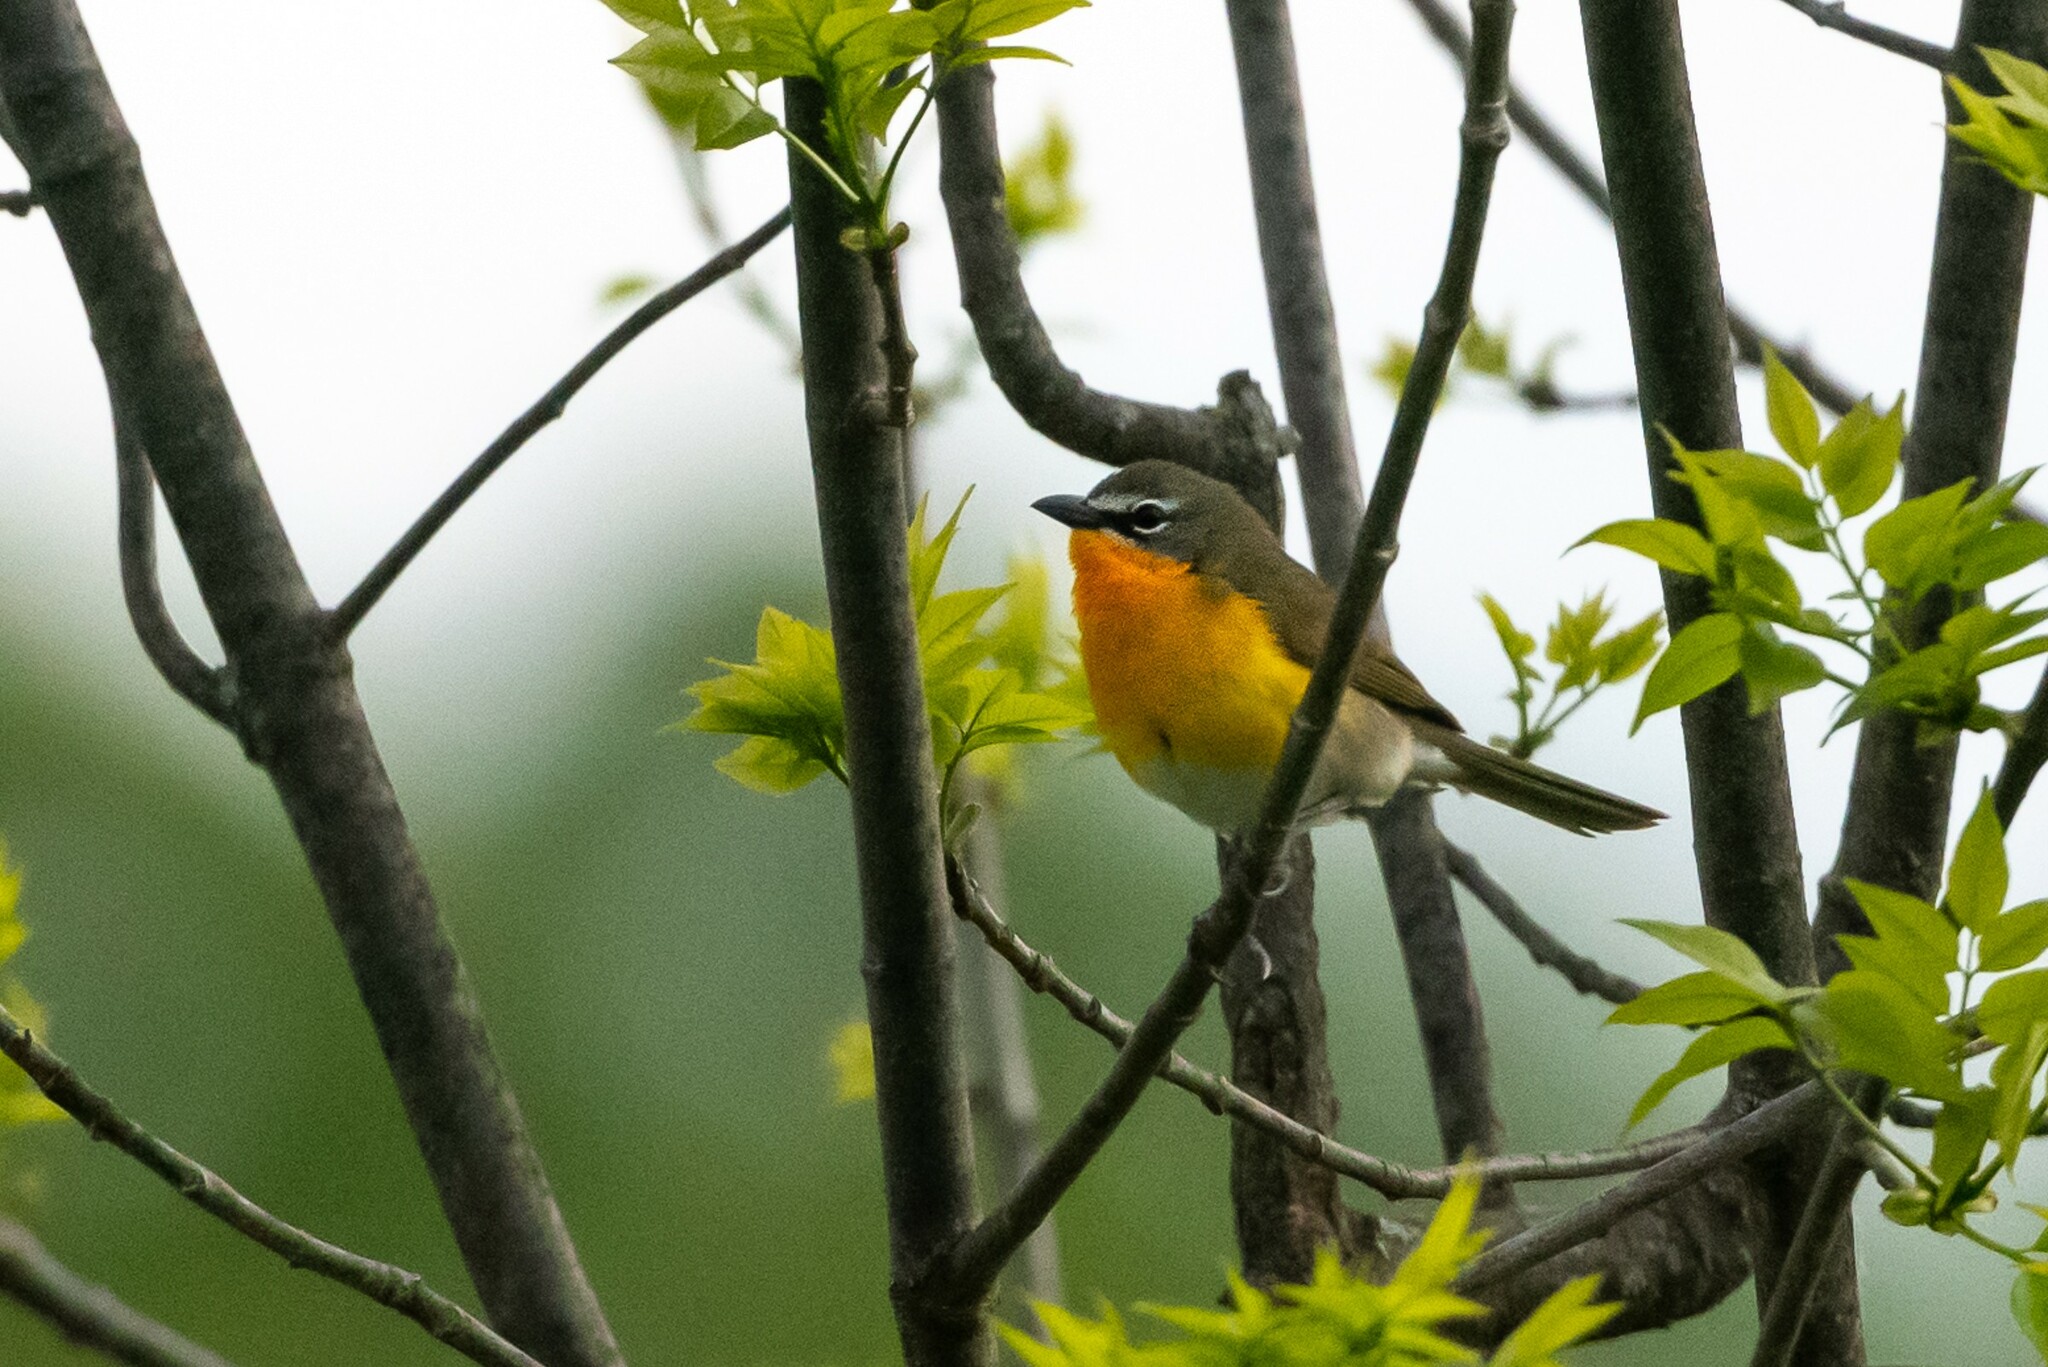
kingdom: Animalia
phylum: Chordata
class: Aves
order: Passeriformes
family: Parulidae
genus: Icteria
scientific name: Icteria virens
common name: Yellow-breasted chat
